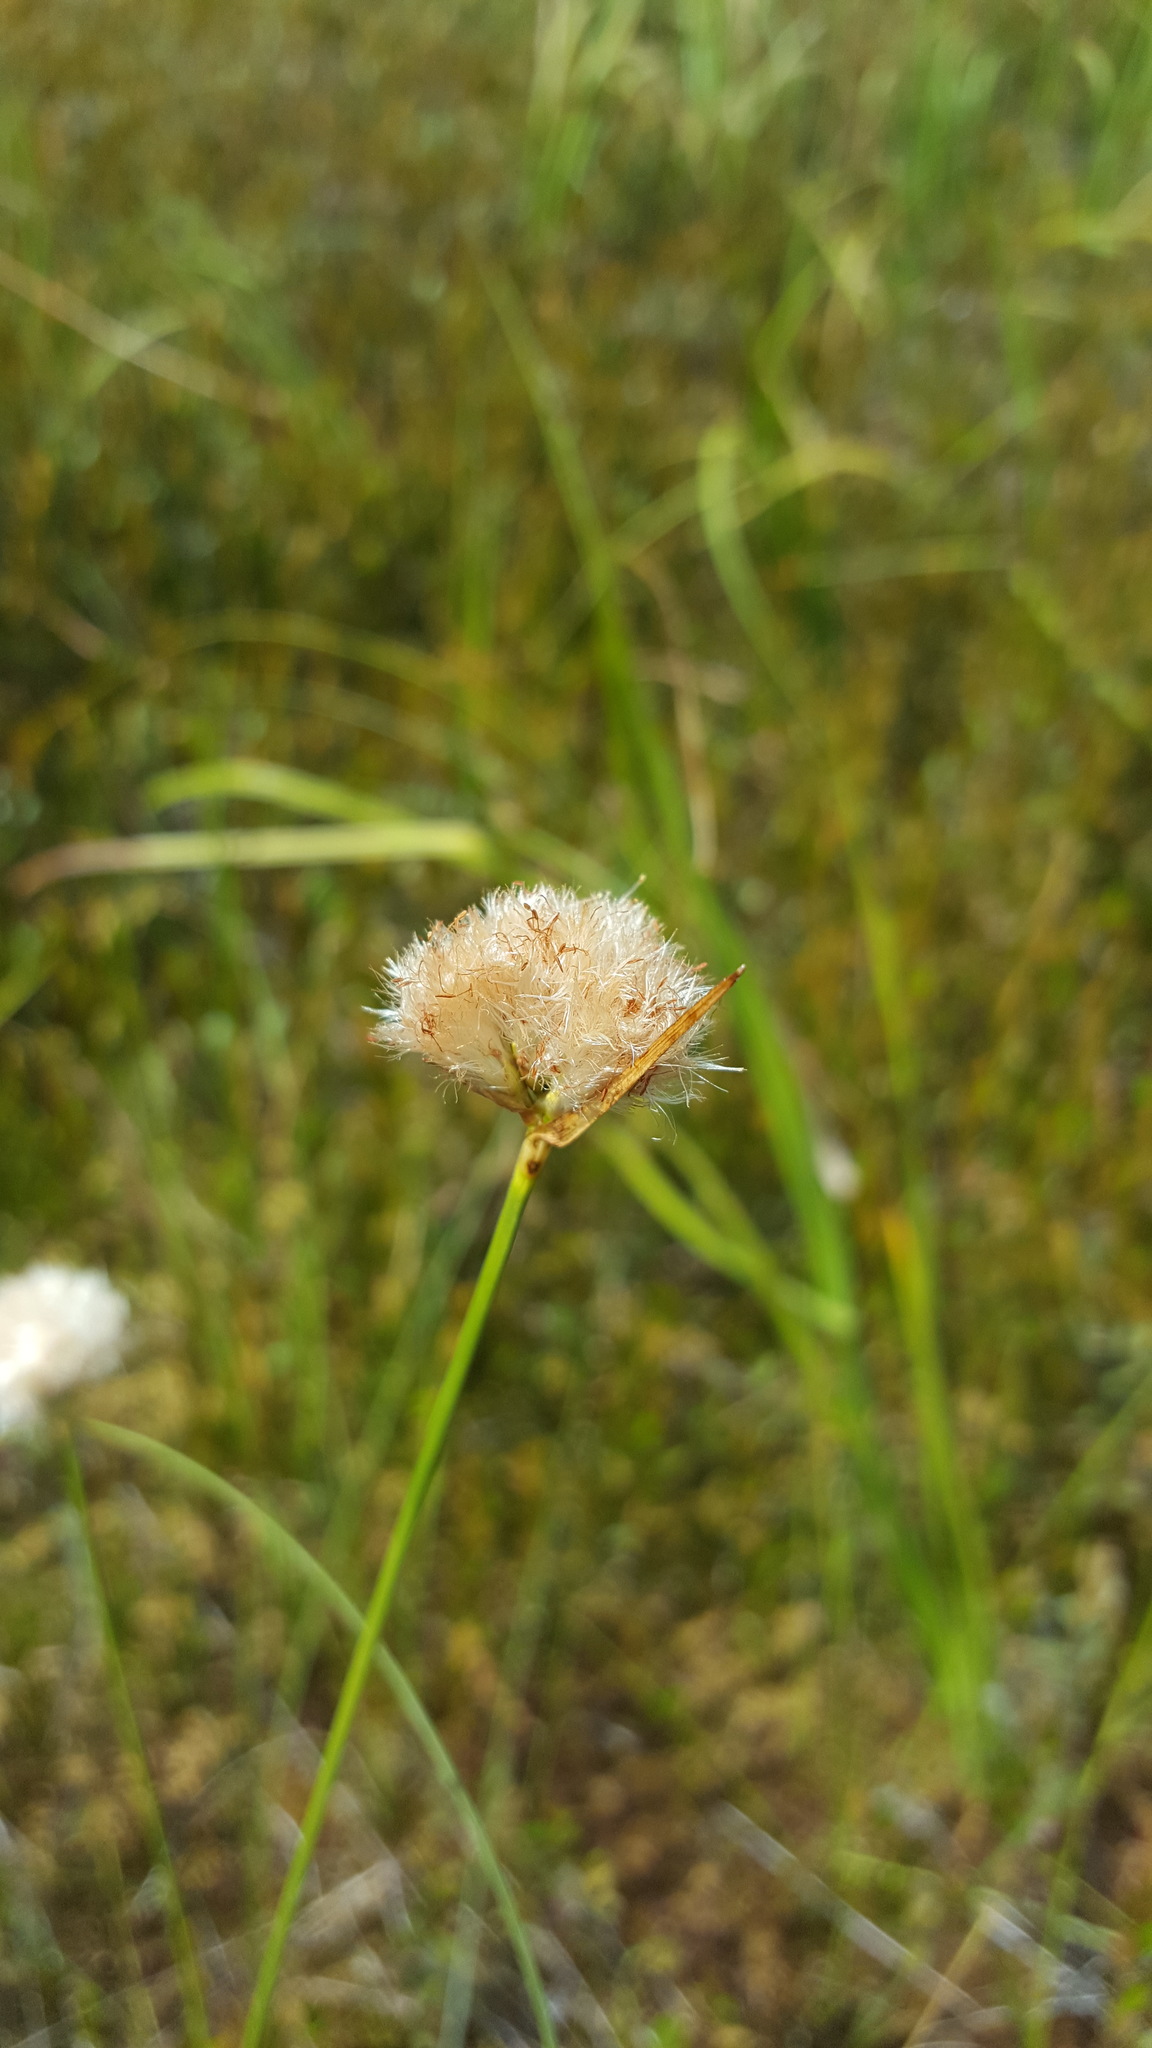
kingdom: Plantae
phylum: Tracheophyta
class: Liliopsida
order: Poales
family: Cyperaceae
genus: Eriophorum
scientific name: Eriophorum virginicum
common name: Tawny cottongrass
